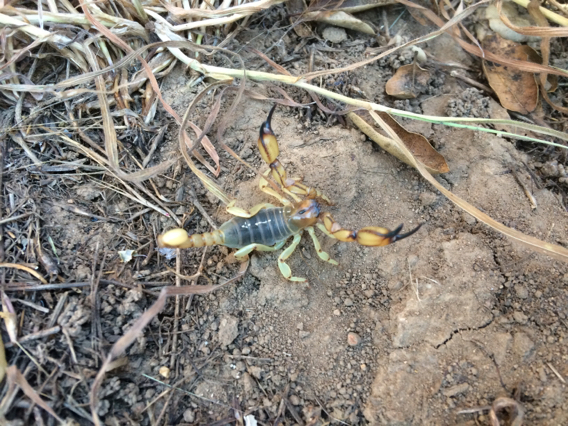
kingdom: Animalia
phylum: Arthropoda
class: Arachnida
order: Scorpiones
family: Chactidae
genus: Anuroctonus
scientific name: Anuroctonus pococki
